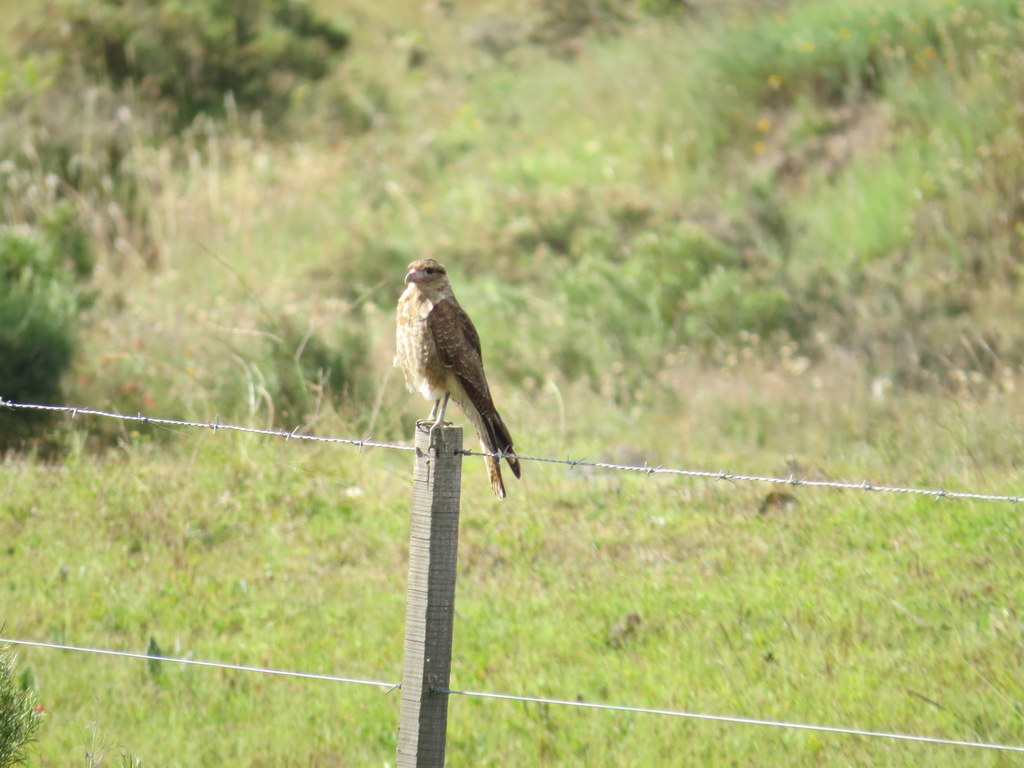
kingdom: Animalia
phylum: Chordata
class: Aves
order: Falconiformes
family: Falconidae
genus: Daptrius
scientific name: Daptrius
